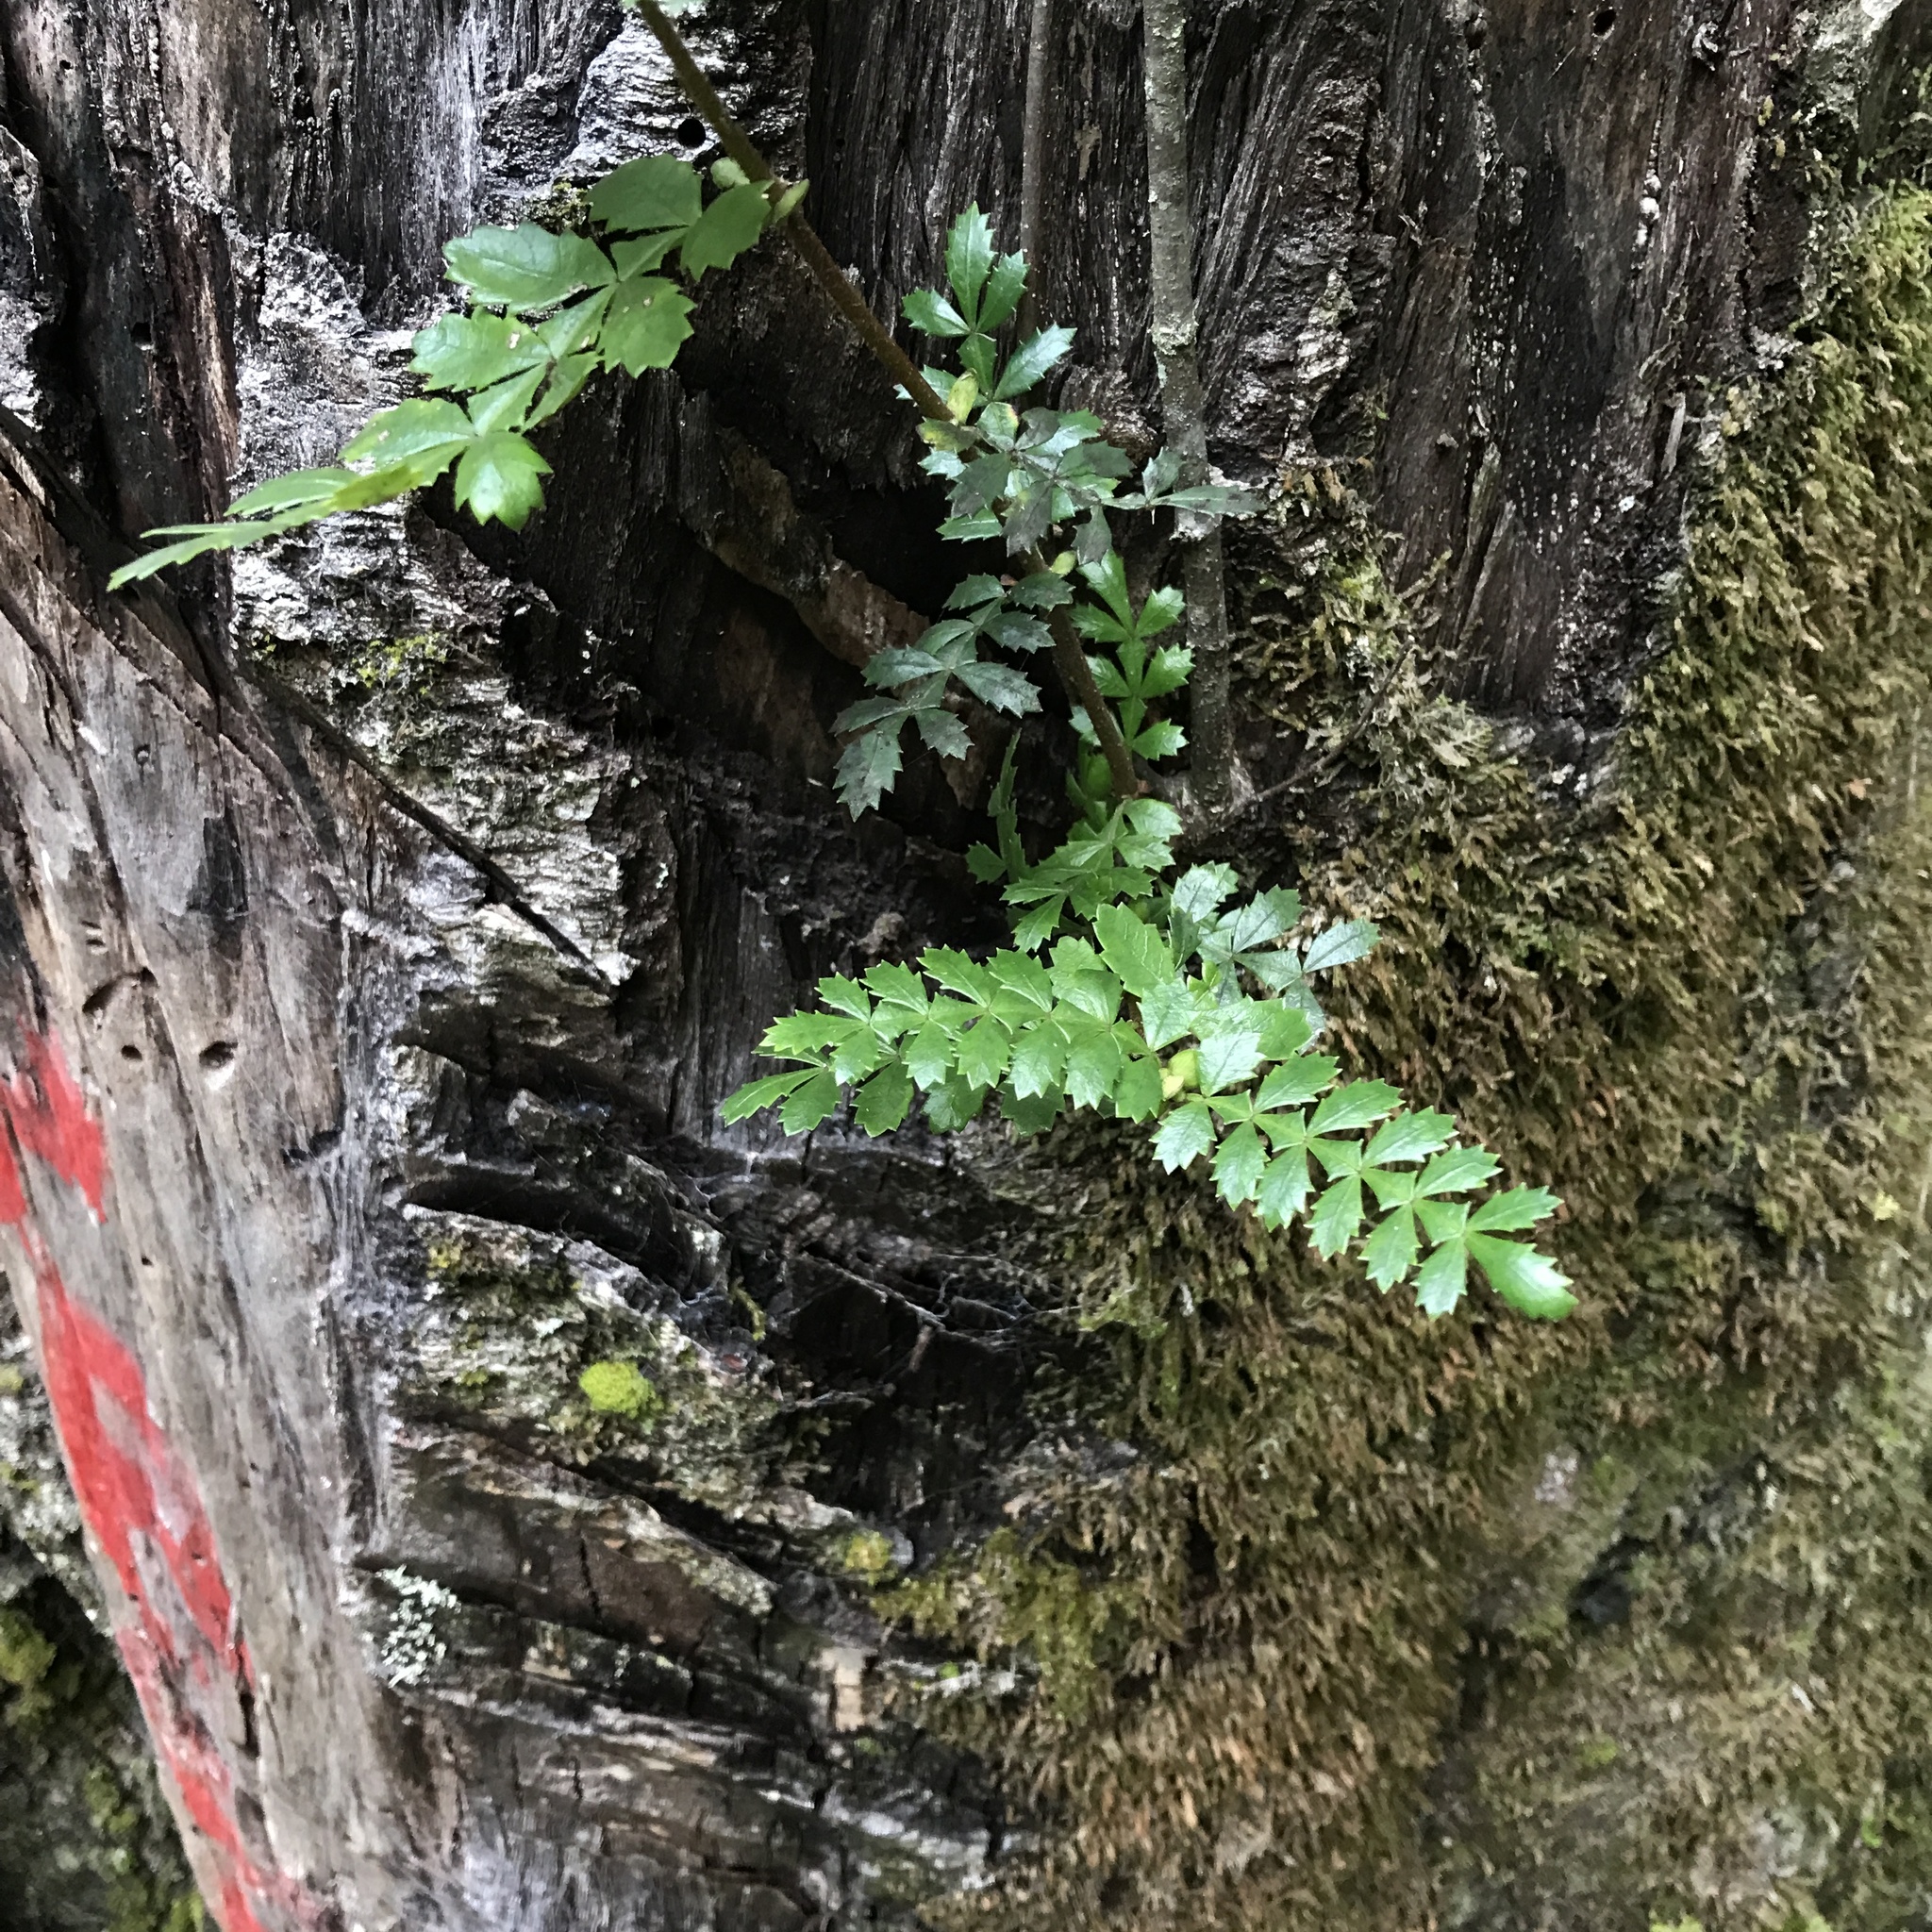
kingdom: Plantae
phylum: Tracheophyta
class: Magnoliopsida
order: Oxalidales
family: Cunoniaceae
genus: Weinmannia
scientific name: Weinmannia trichosperma
